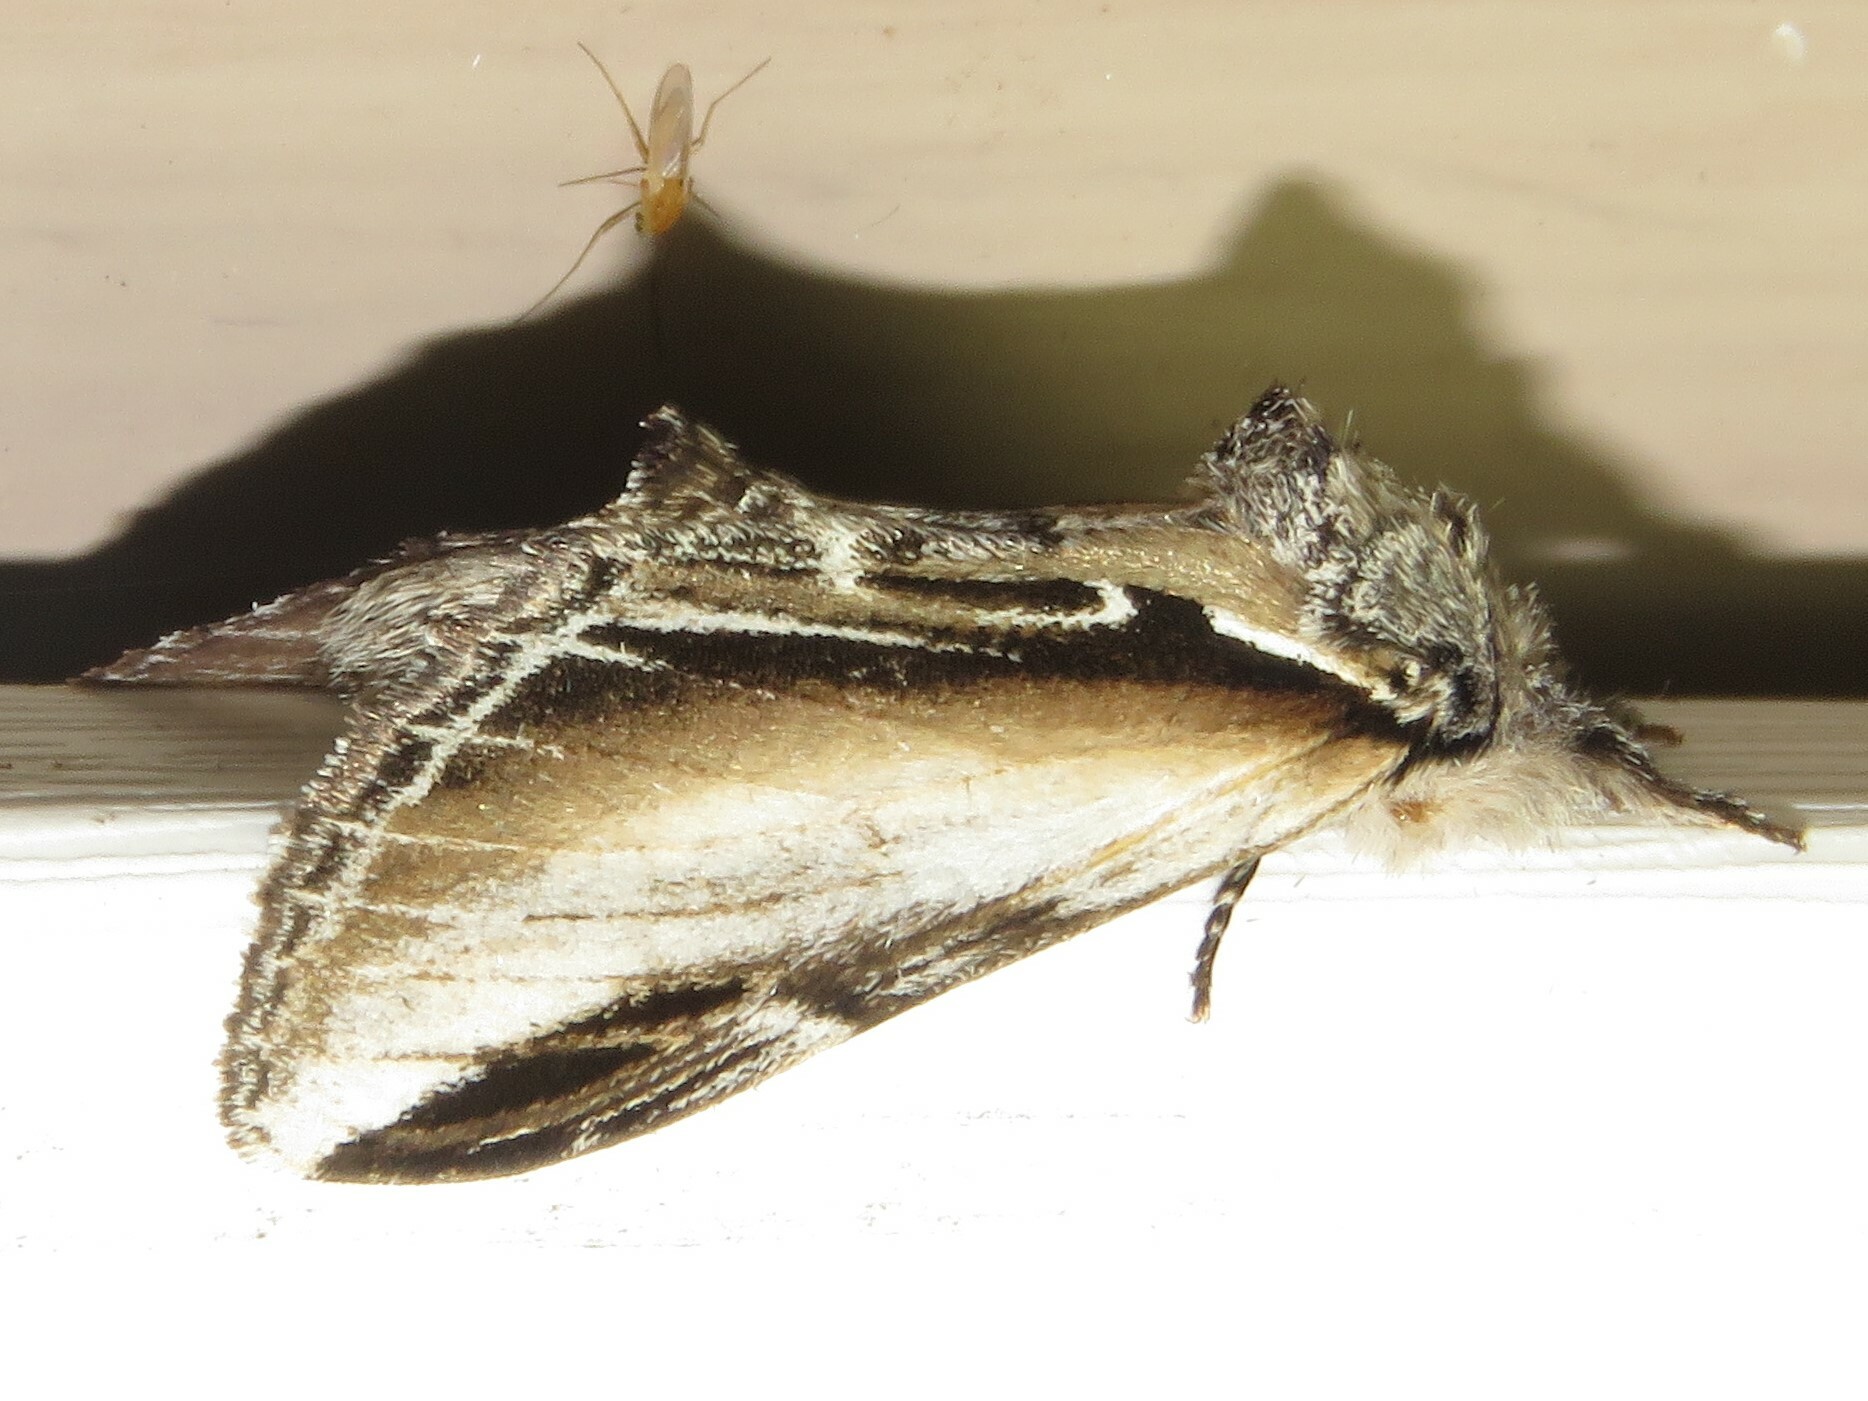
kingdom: Animalia
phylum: Arthropoda
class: Insecta
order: Lepidoptera
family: Notodontidae
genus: Pheosia
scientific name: Pheosia rimosa
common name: Black-rimmed prominent
